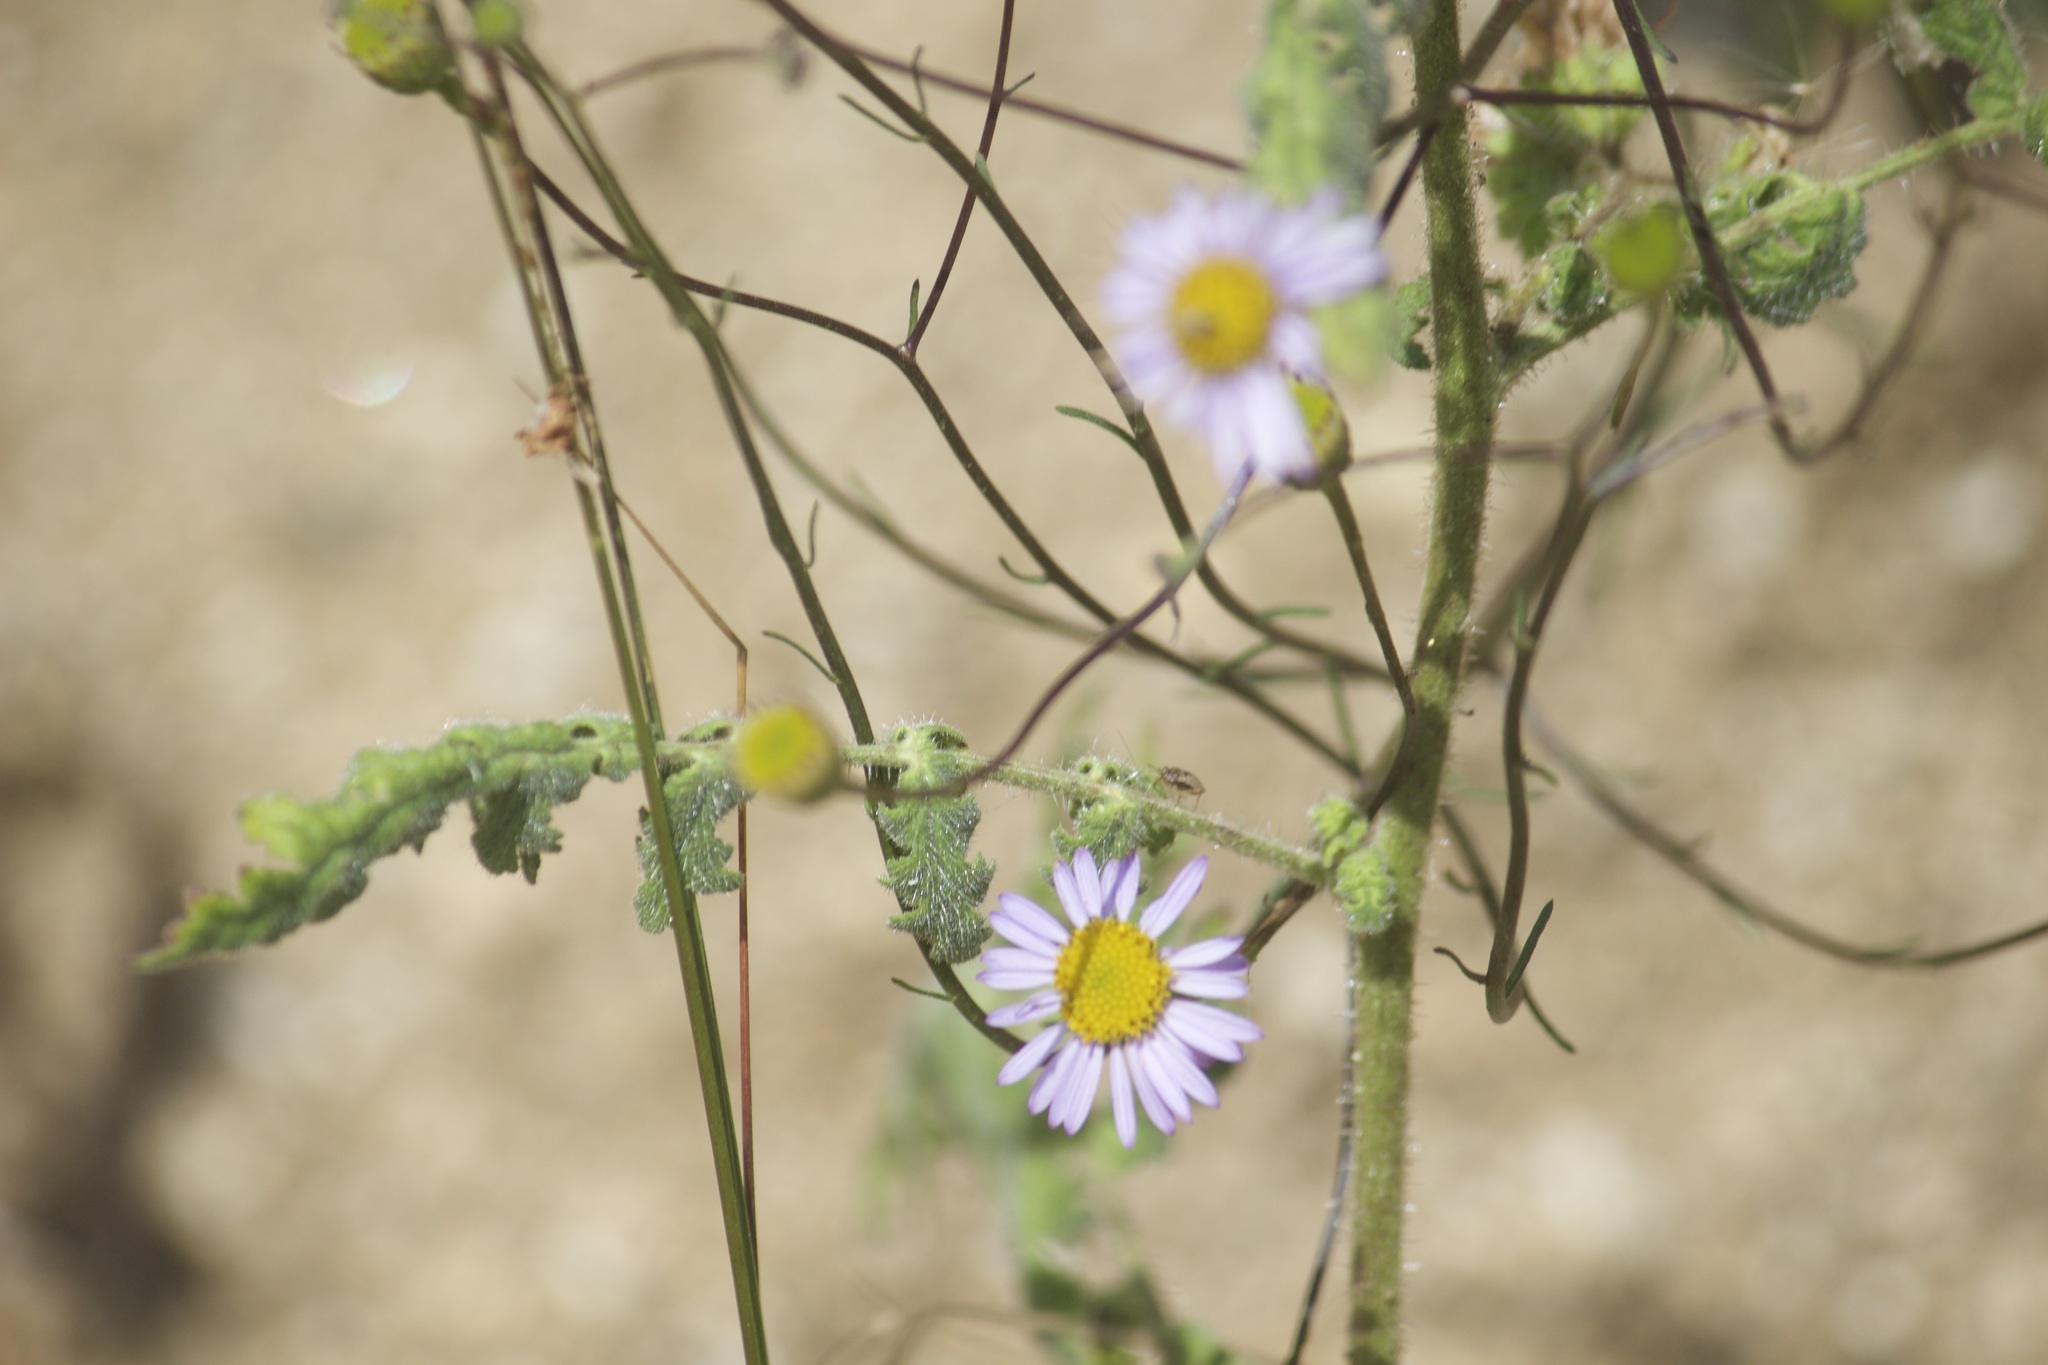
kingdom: Plantae
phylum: Tracheophyta
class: Magnoliopsida
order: Asterales
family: Asteraceae
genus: Erigeron
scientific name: Erigeron foliosus
